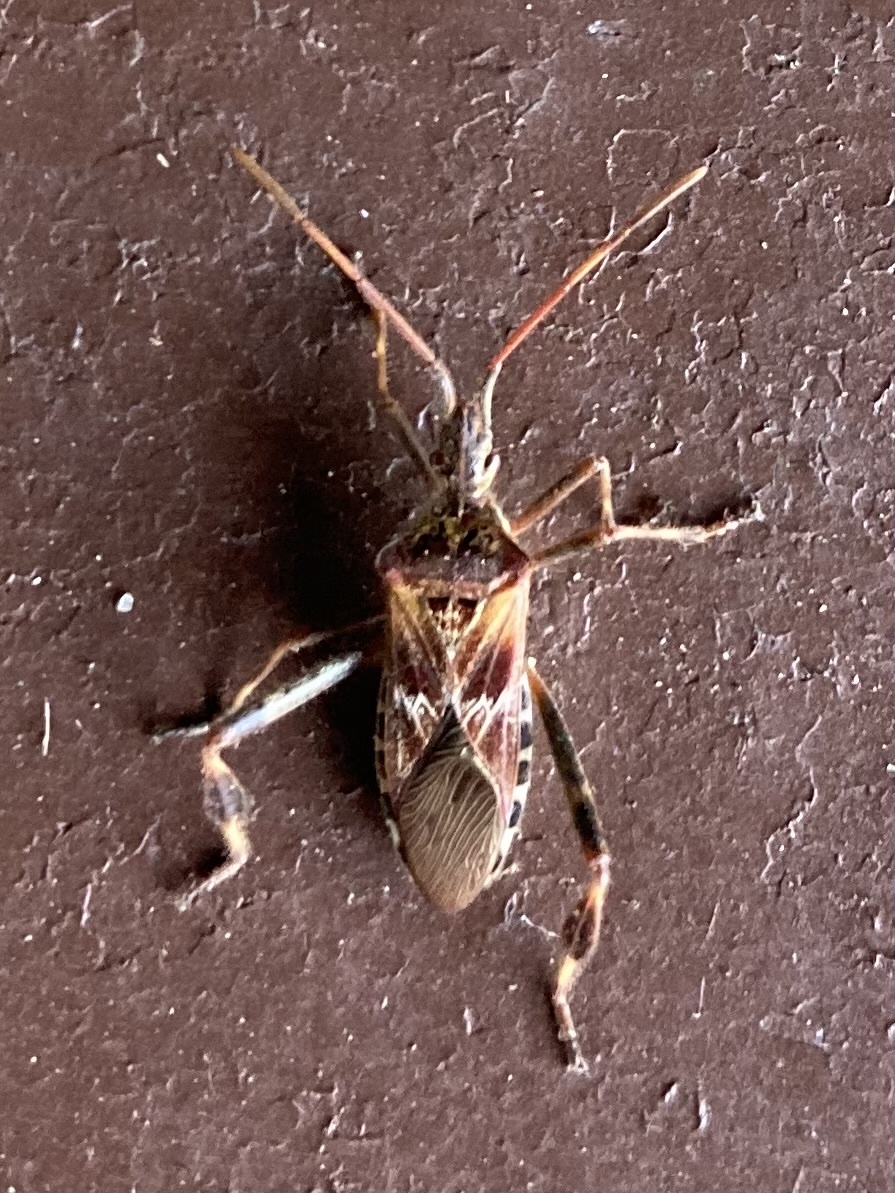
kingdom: Animalia
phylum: Arthropoda
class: Insecta
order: Hemiptera
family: Coreidae
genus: Leptoglossus
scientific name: Leptoglossus occidentalis
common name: Western conifer-seed bug
